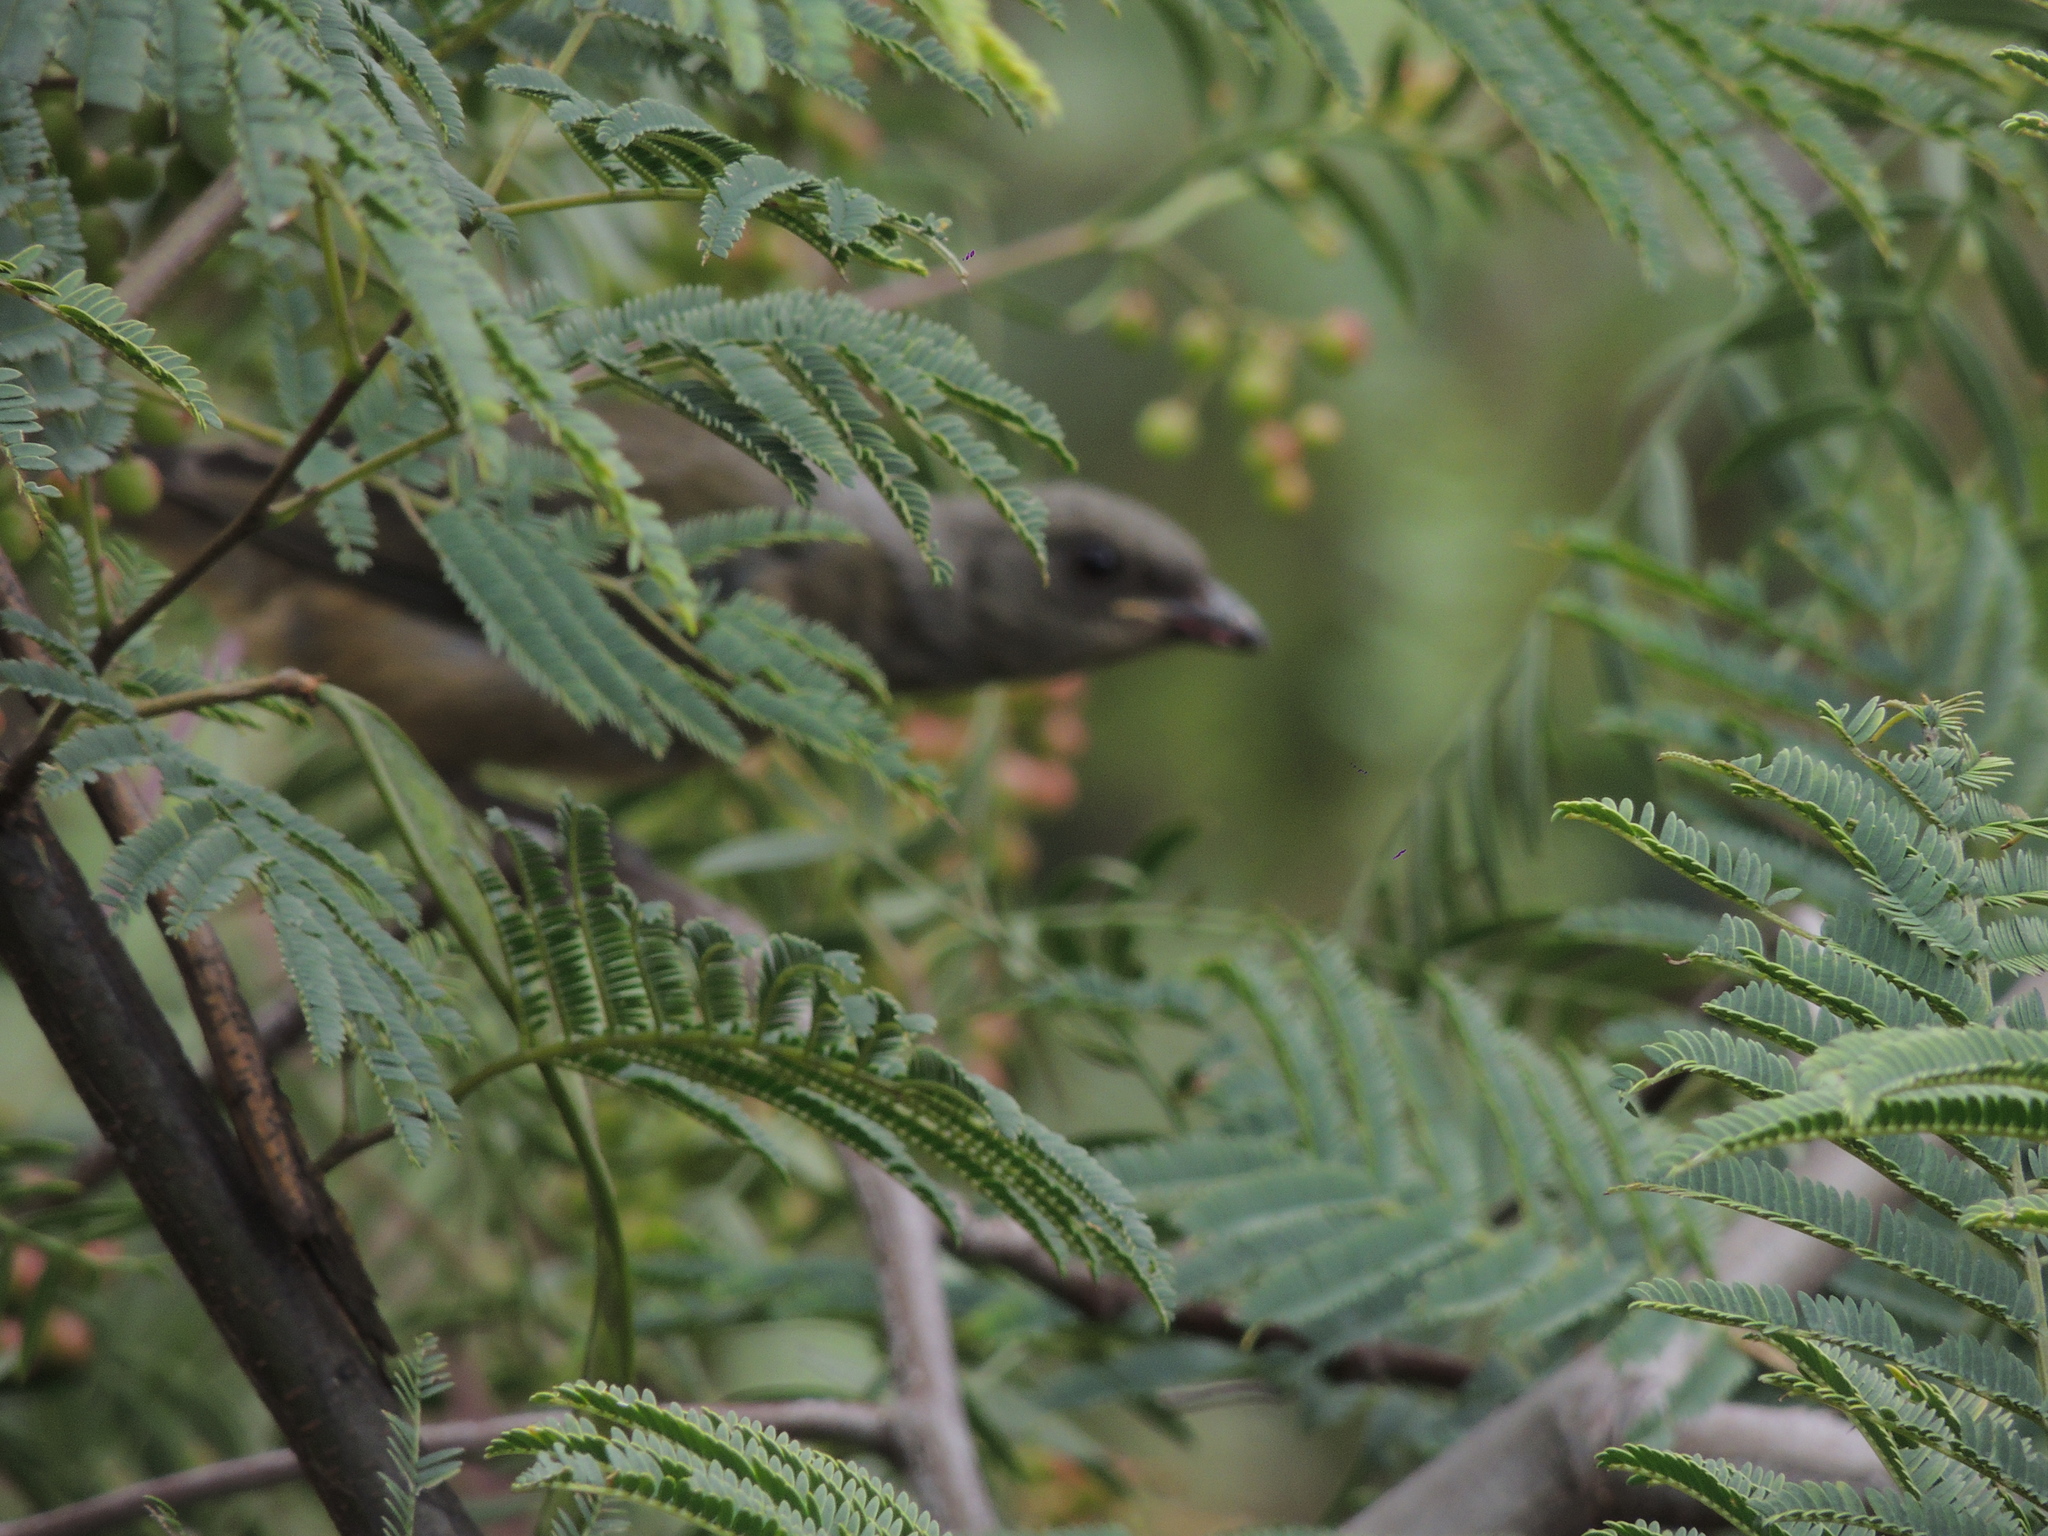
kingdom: Animalia
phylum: Chordata
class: Aves
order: Passeriformes
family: Thraupidae
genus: Rauenia
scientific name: Rauenia bonariensis
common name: Blue-and-yellow tanager
